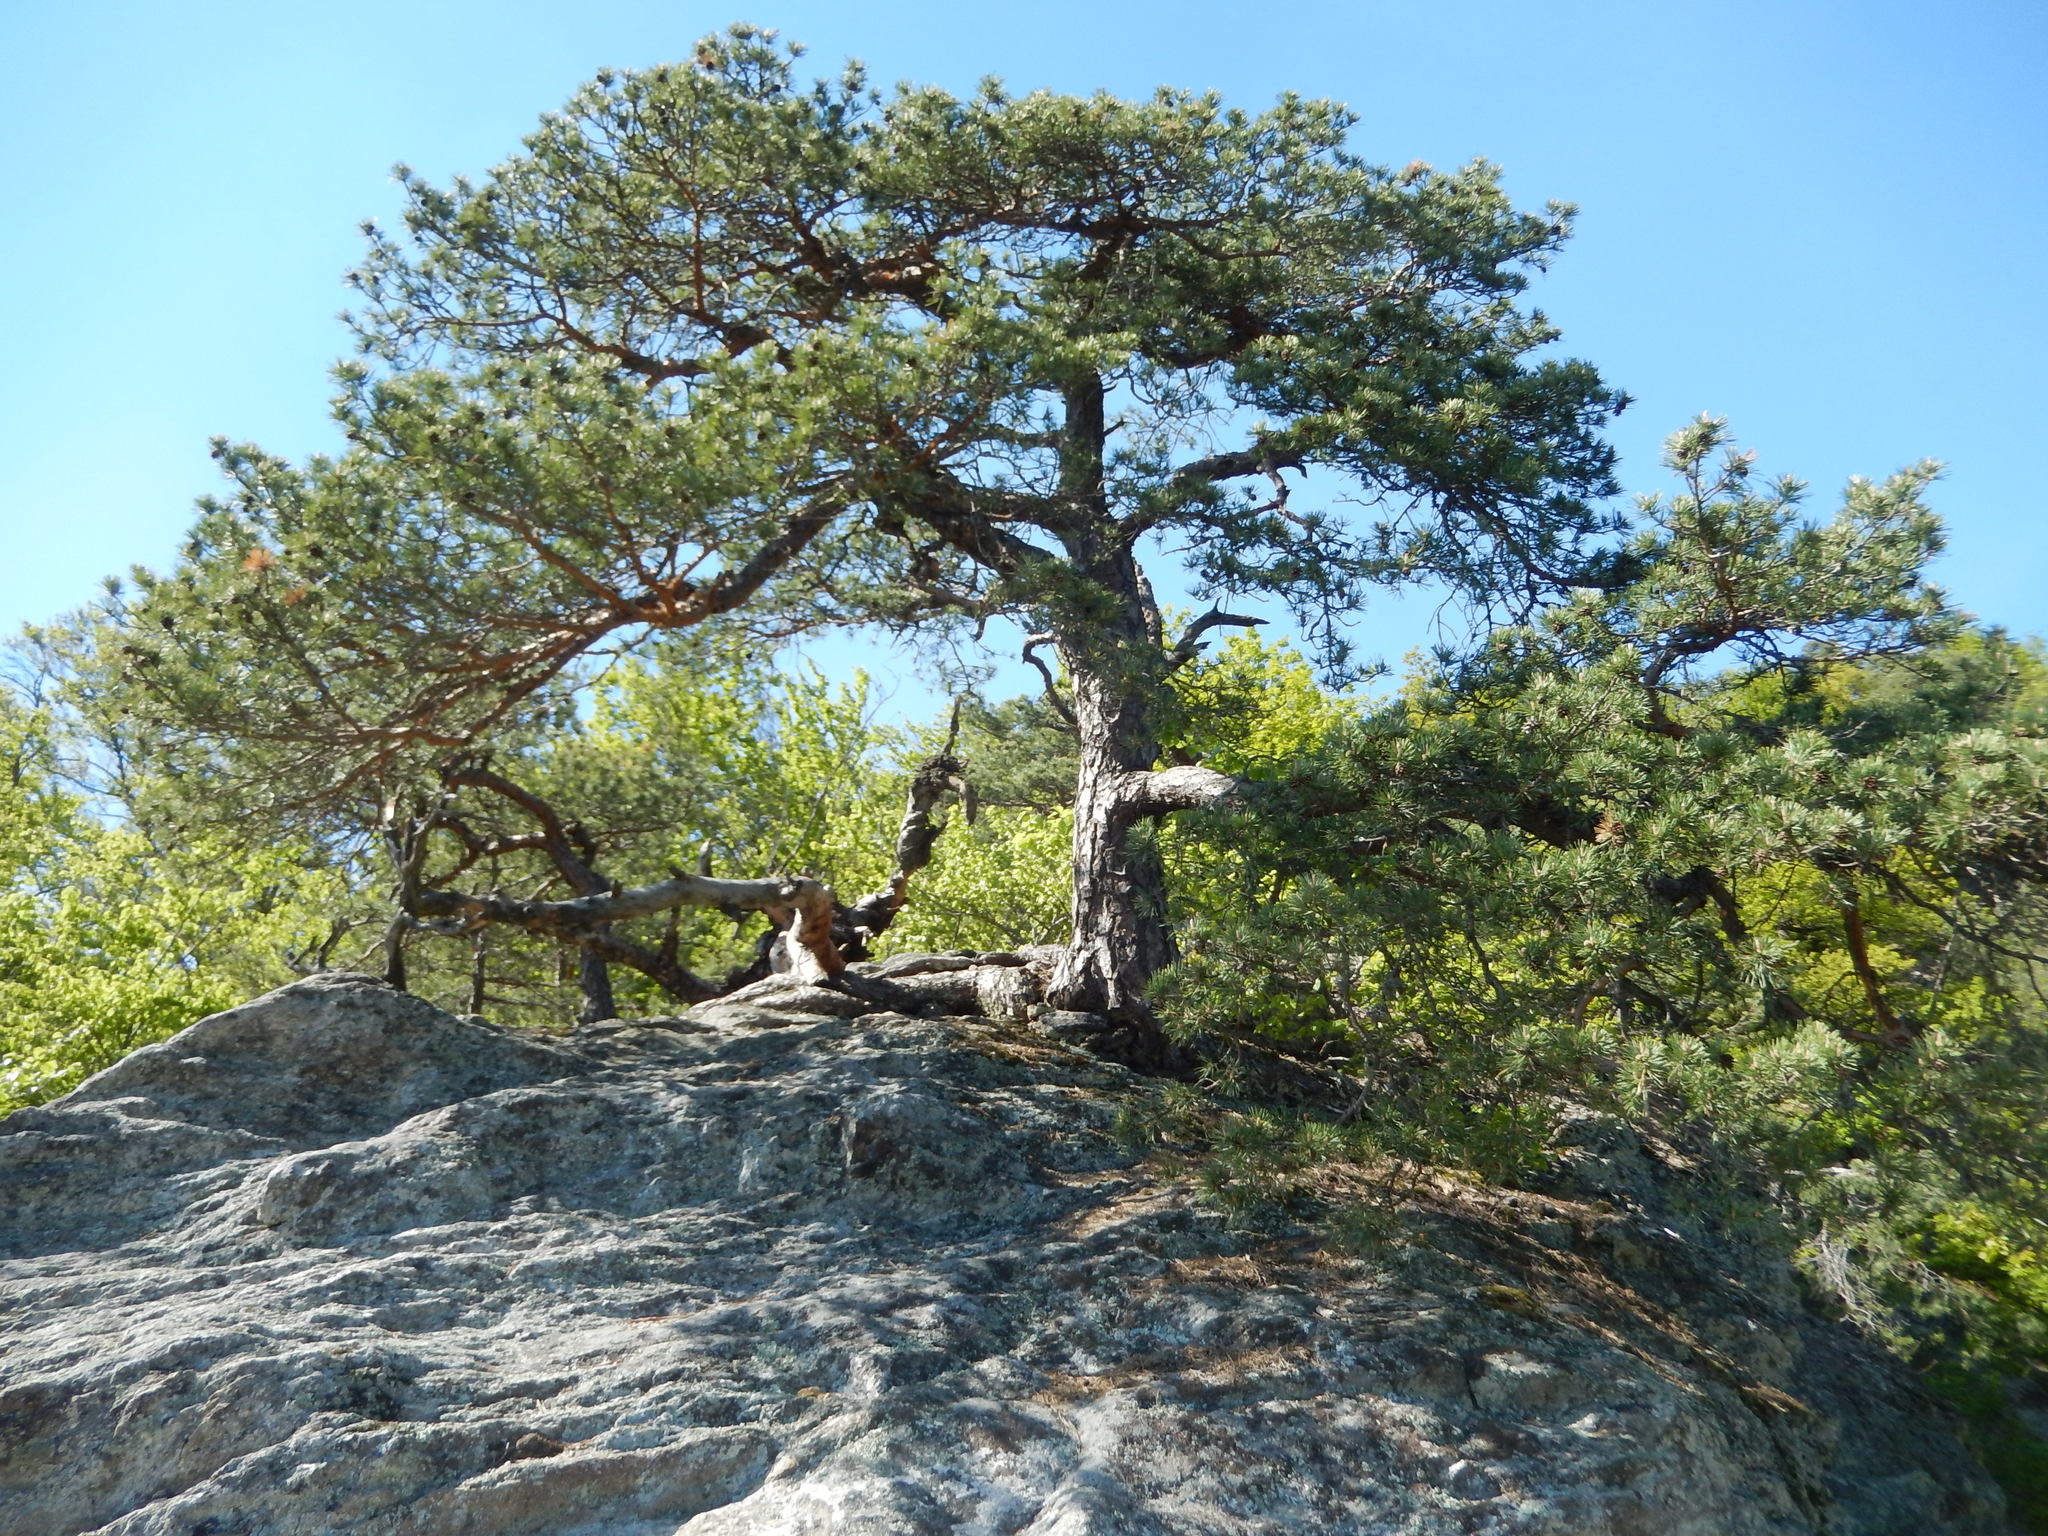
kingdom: Plantae
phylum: Tracheophyta
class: Pinopsida
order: Pinales
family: Pinaceae
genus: Pinus
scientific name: Pinus sylvestris
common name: Scots pine
